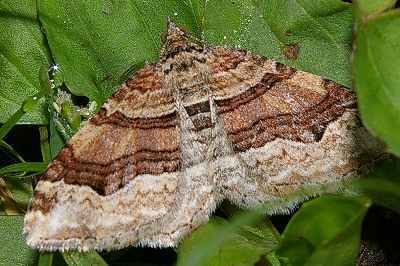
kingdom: Animalia
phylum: Arthropoda
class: Insecta
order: Lepidoptera
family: Geometridae
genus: Xanthorhoe
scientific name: Xanthorhoe hortensiaria
